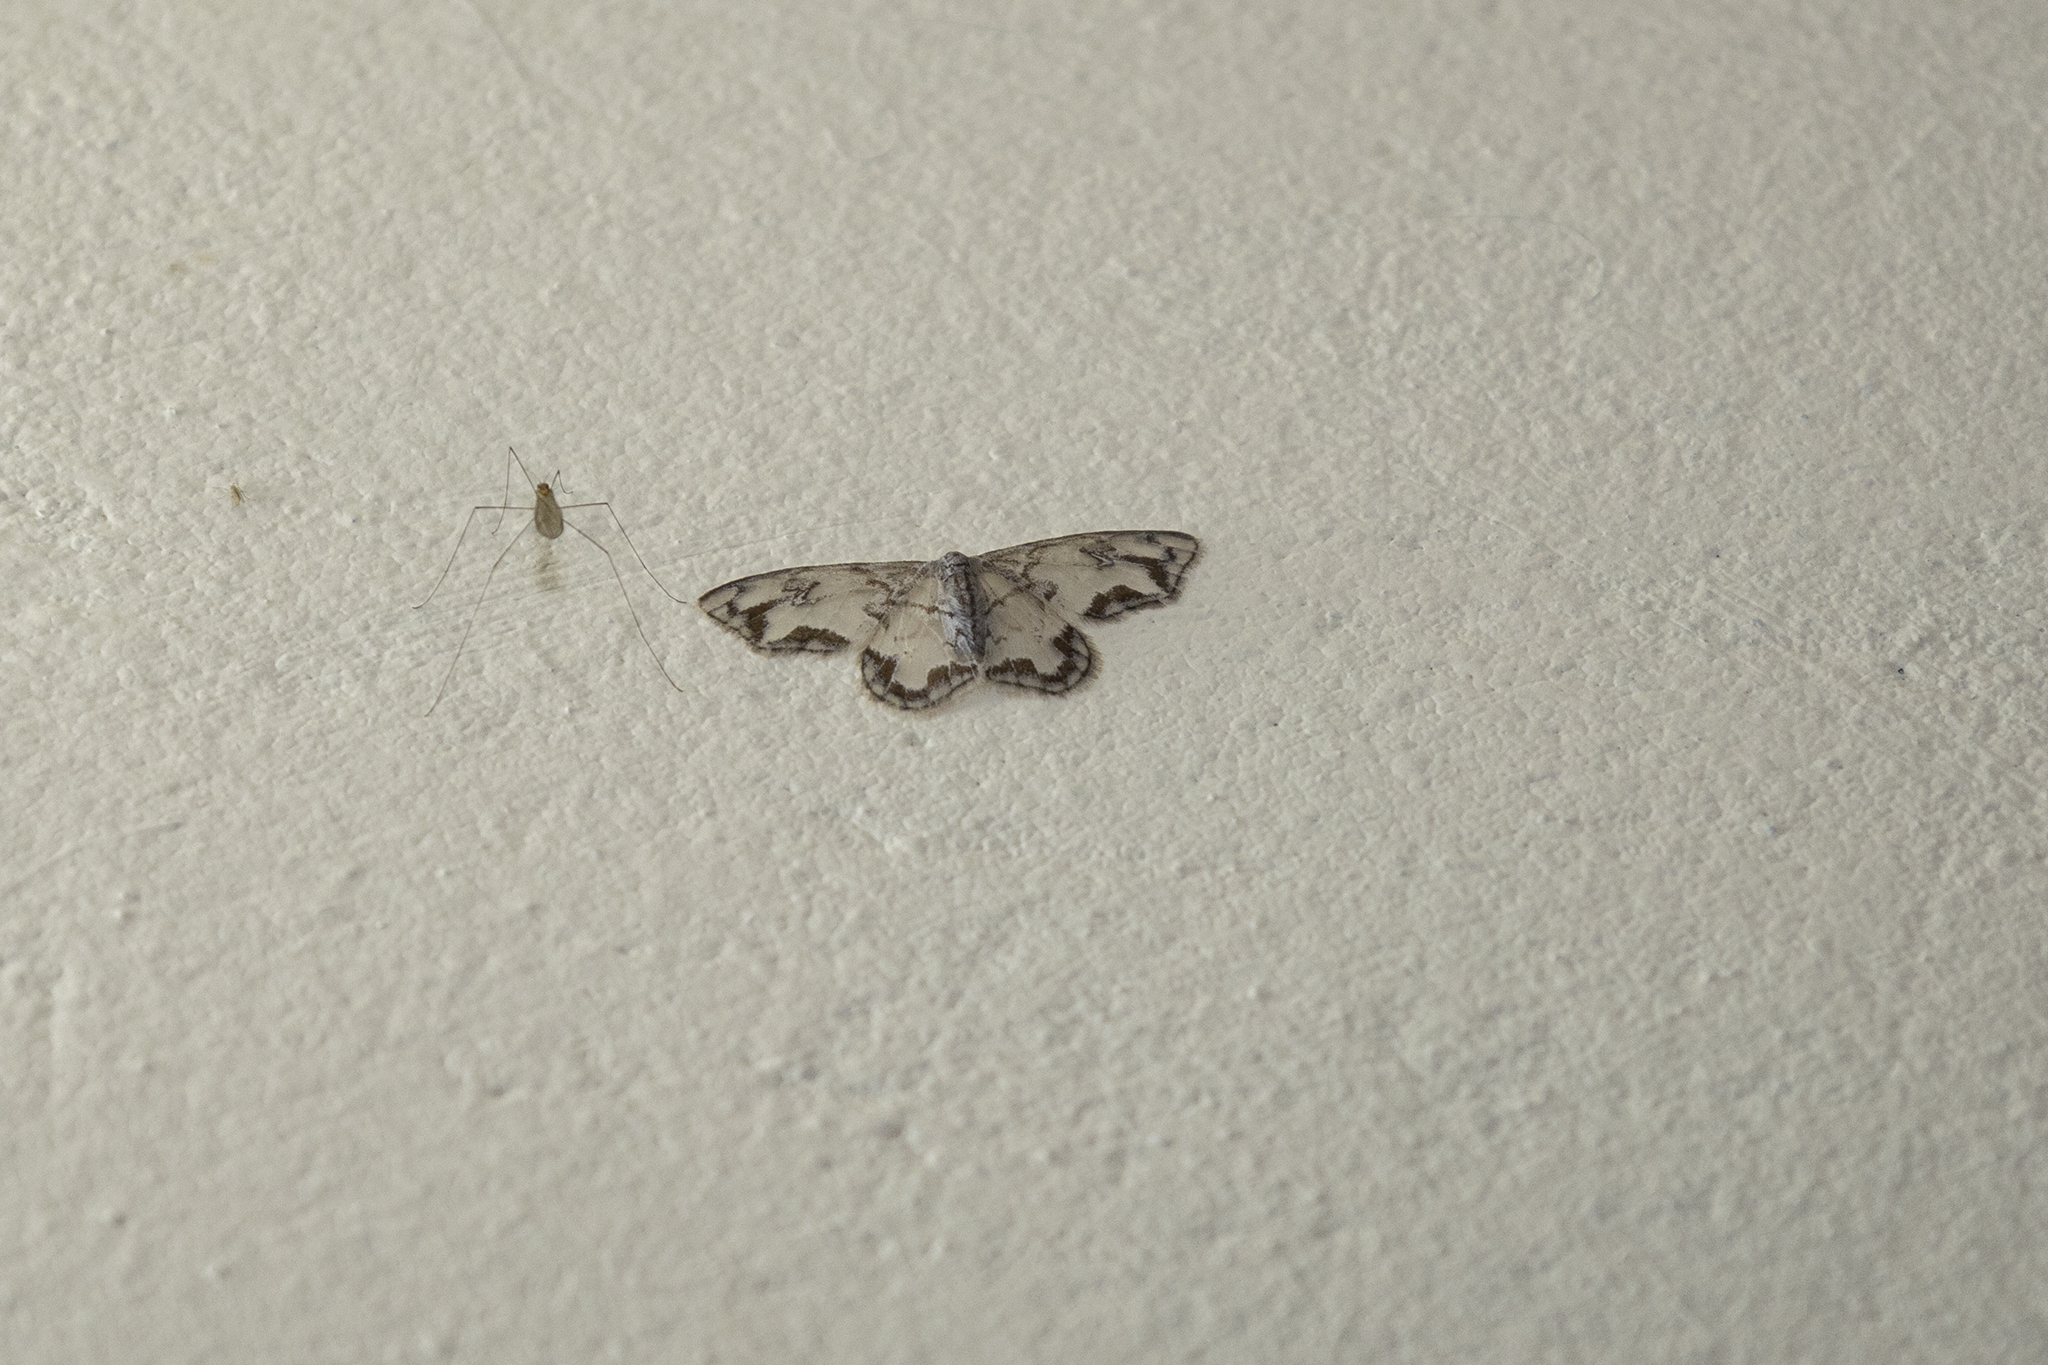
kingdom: Animalia
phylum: Arthropoda
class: Insecta
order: Lepidoptera
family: Drepanidae
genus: Auzatellodes
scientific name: Auzatellodes
